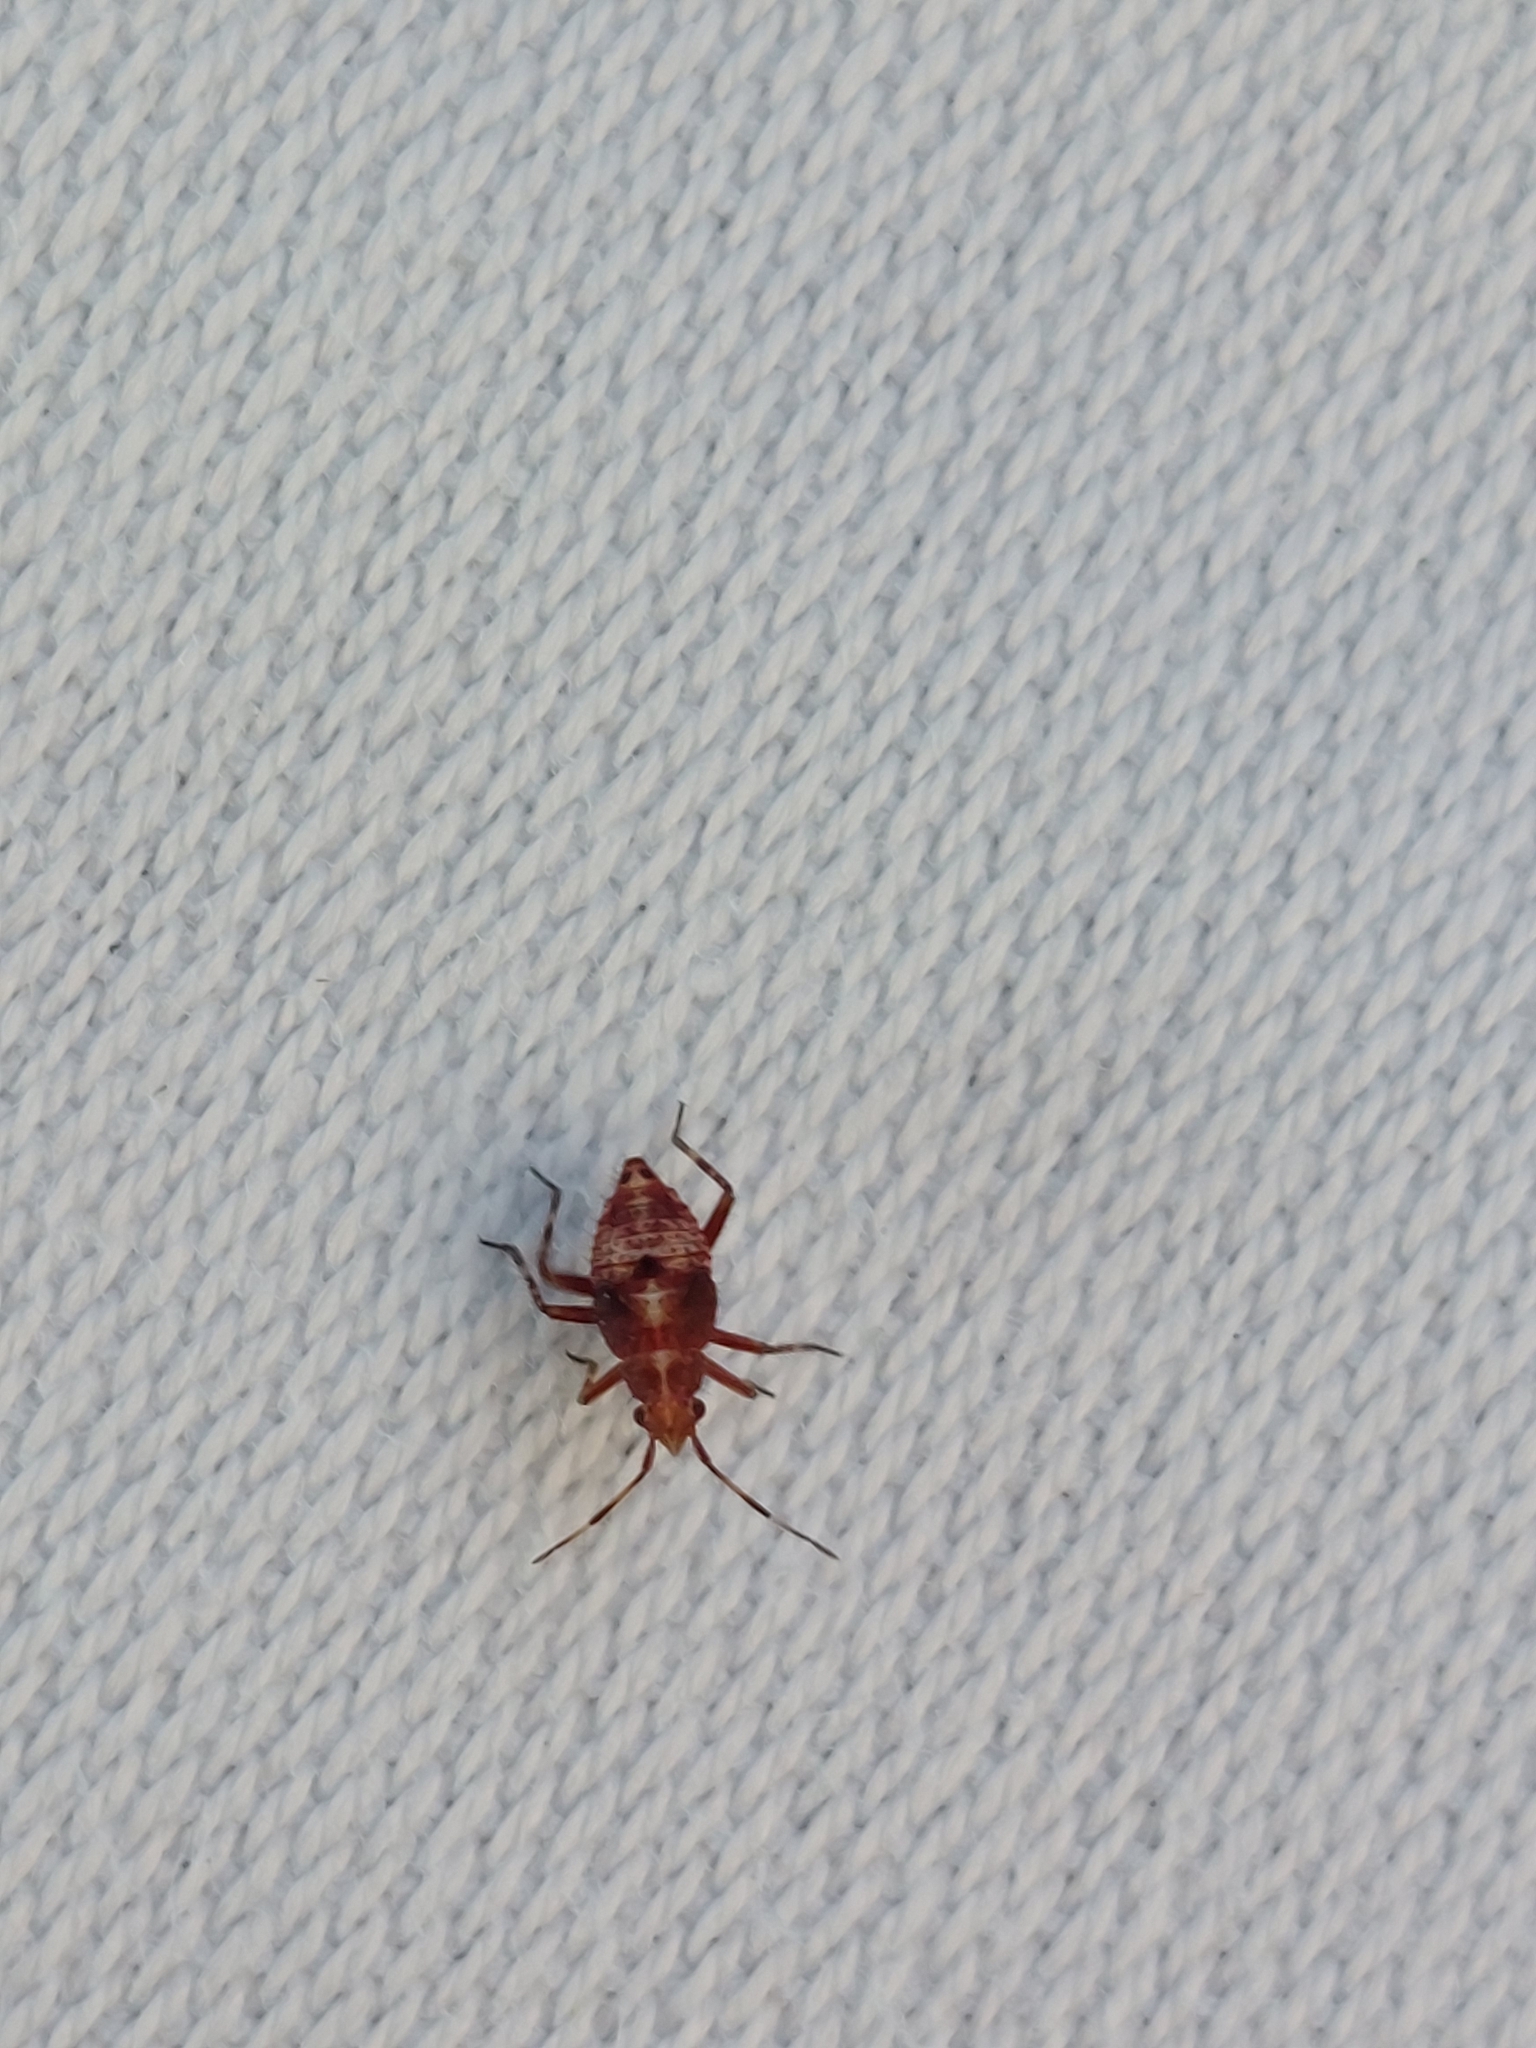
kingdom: Animalia
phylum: Arthropoda
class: Insecta
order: Hemiptera
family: Miridae
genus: Deraeocoris
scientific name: Deraeocoris flavilinea
